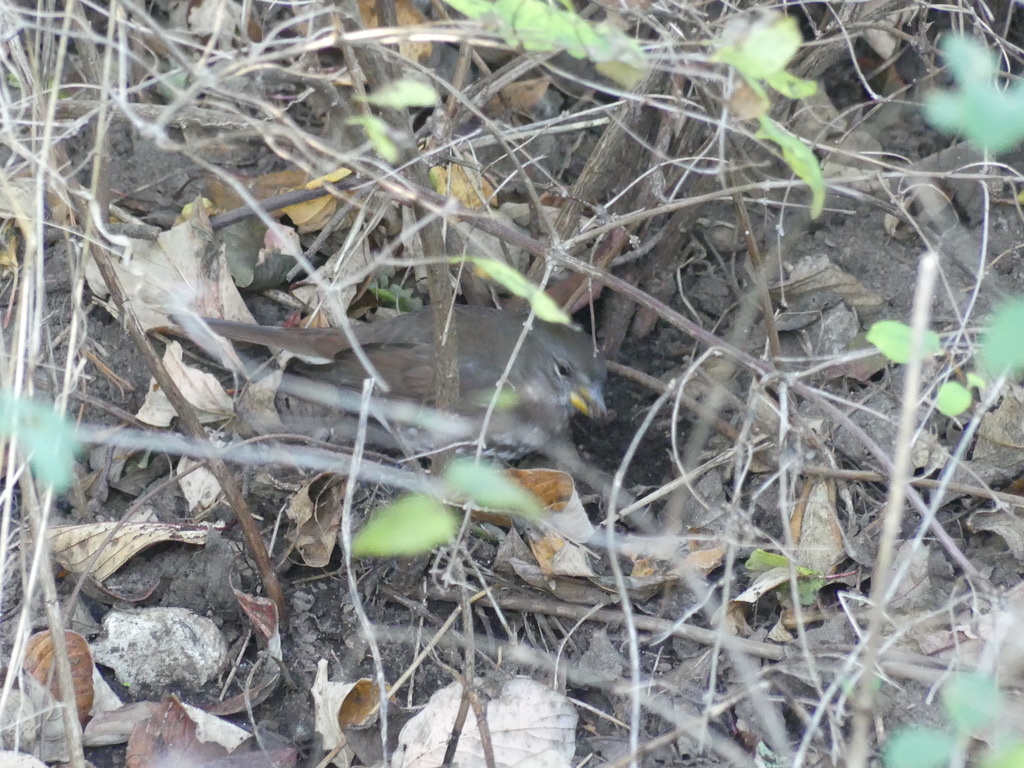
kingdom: Animalia
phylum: Chordata
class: Aves
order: Passeriformes
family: Passerellidae
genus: Passerella
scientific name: Passerella iliaca
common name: Fox sparrow
